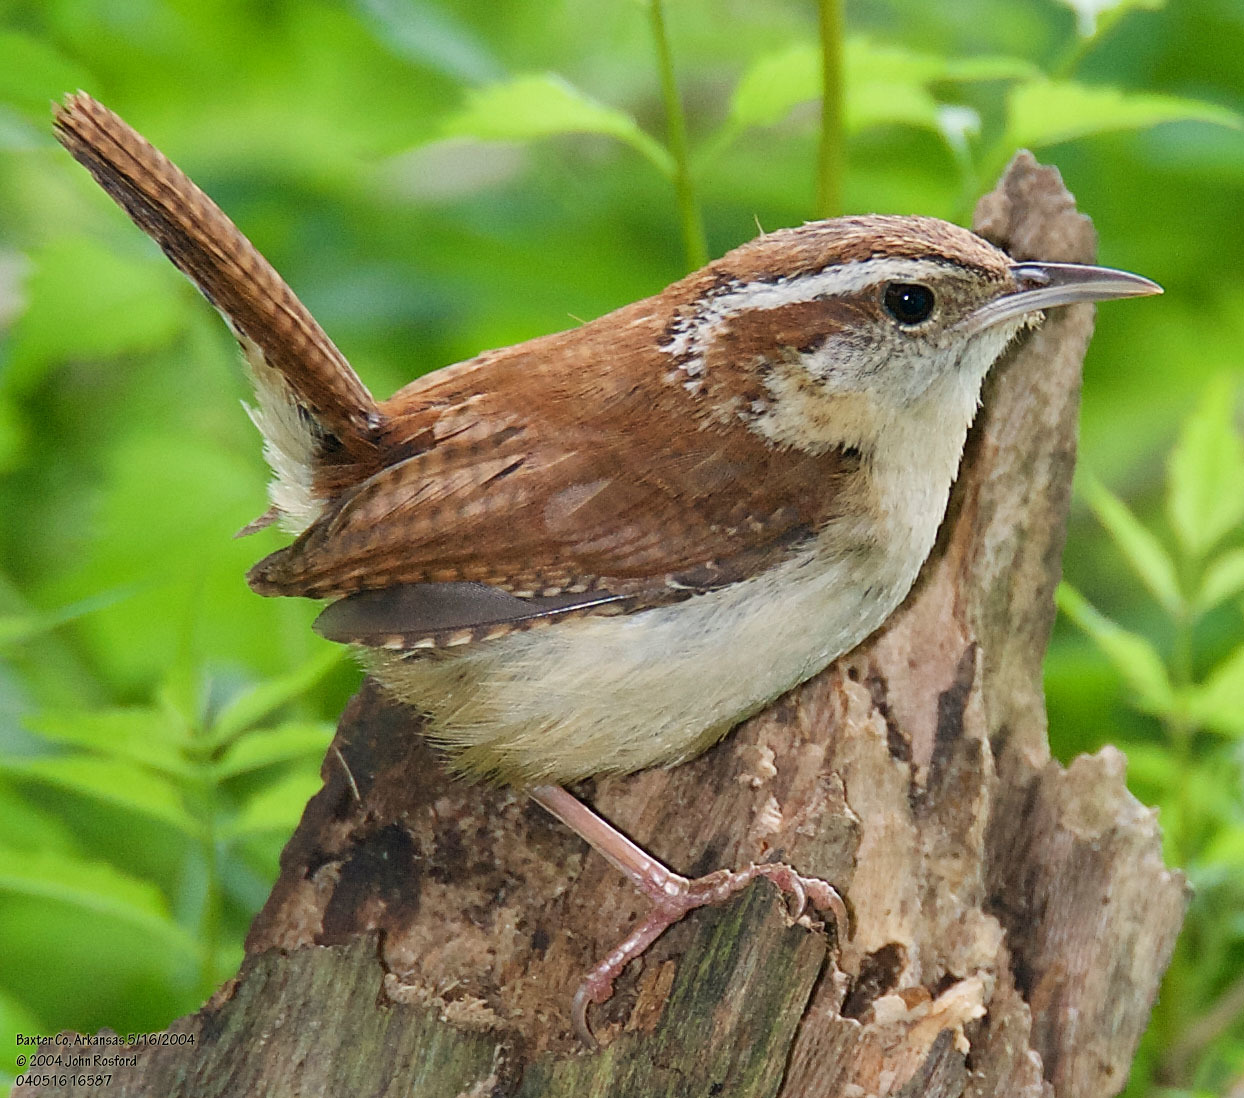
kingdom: Animalia
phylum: Chordata
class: Aves
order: Passeriformes
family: Troglodytidae
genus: Thryothorus
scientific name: Thryothorus ludovicianus
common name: Carolina wren
